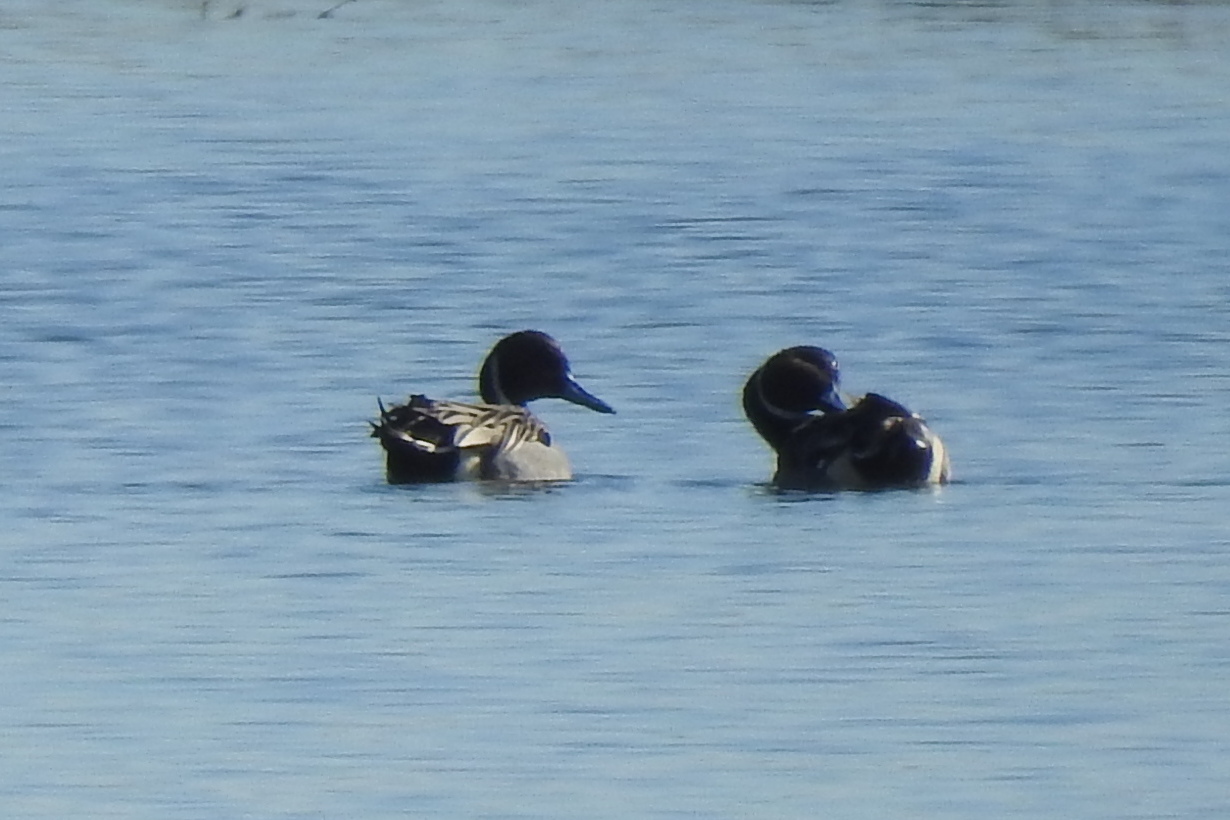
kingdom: Animalia
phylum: Chordata
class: Aves
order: Anseriformes
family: Anatidae
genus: Anas
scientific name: Anas acuta
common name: Northern pintail
